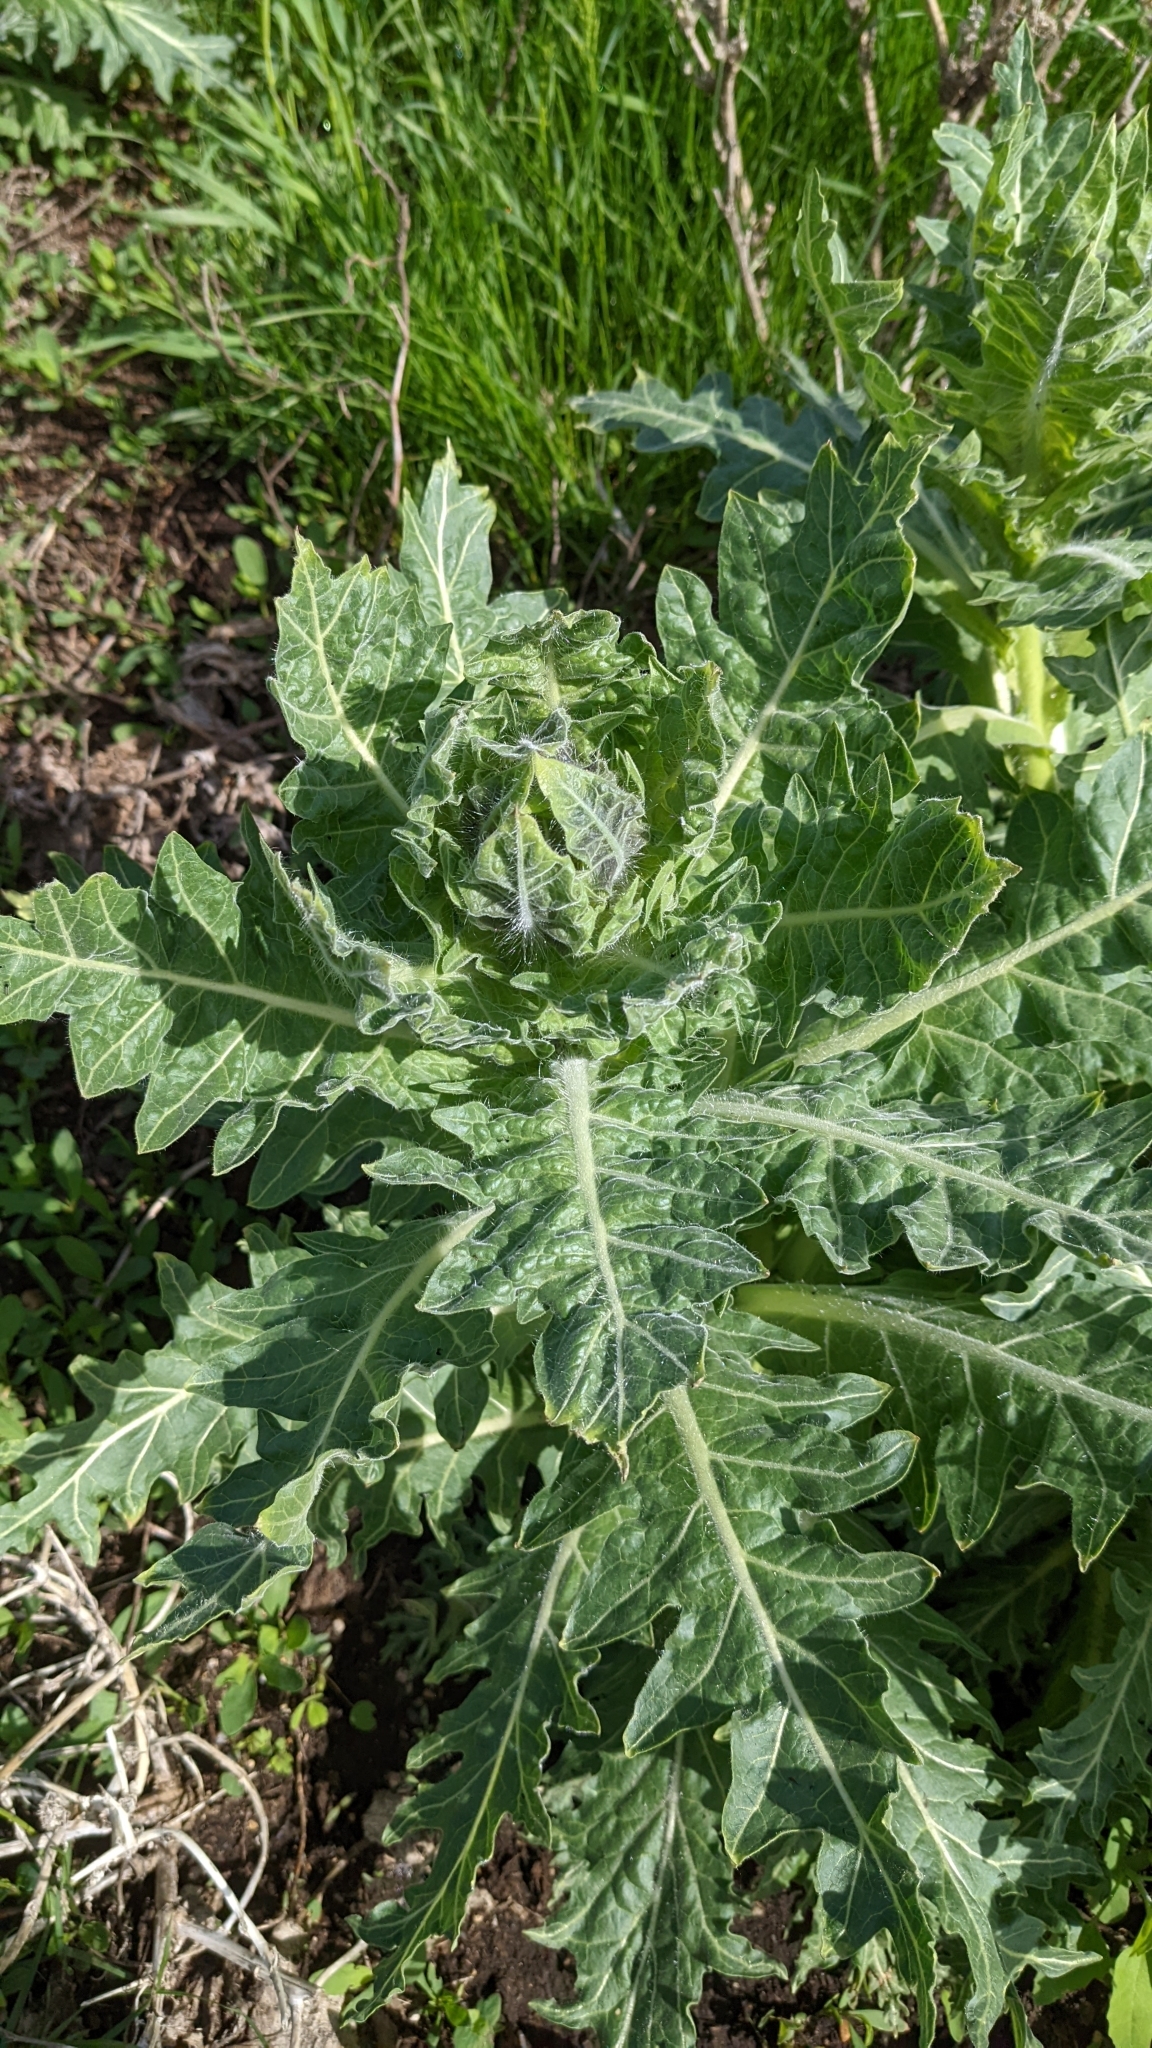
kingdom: Plantae
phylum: Tracheophyta
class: Magnoliopsida
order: Solanales
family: Solanaceae
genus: Hyoscyamus
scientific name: Hyoscyamus niger
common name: Henbane
